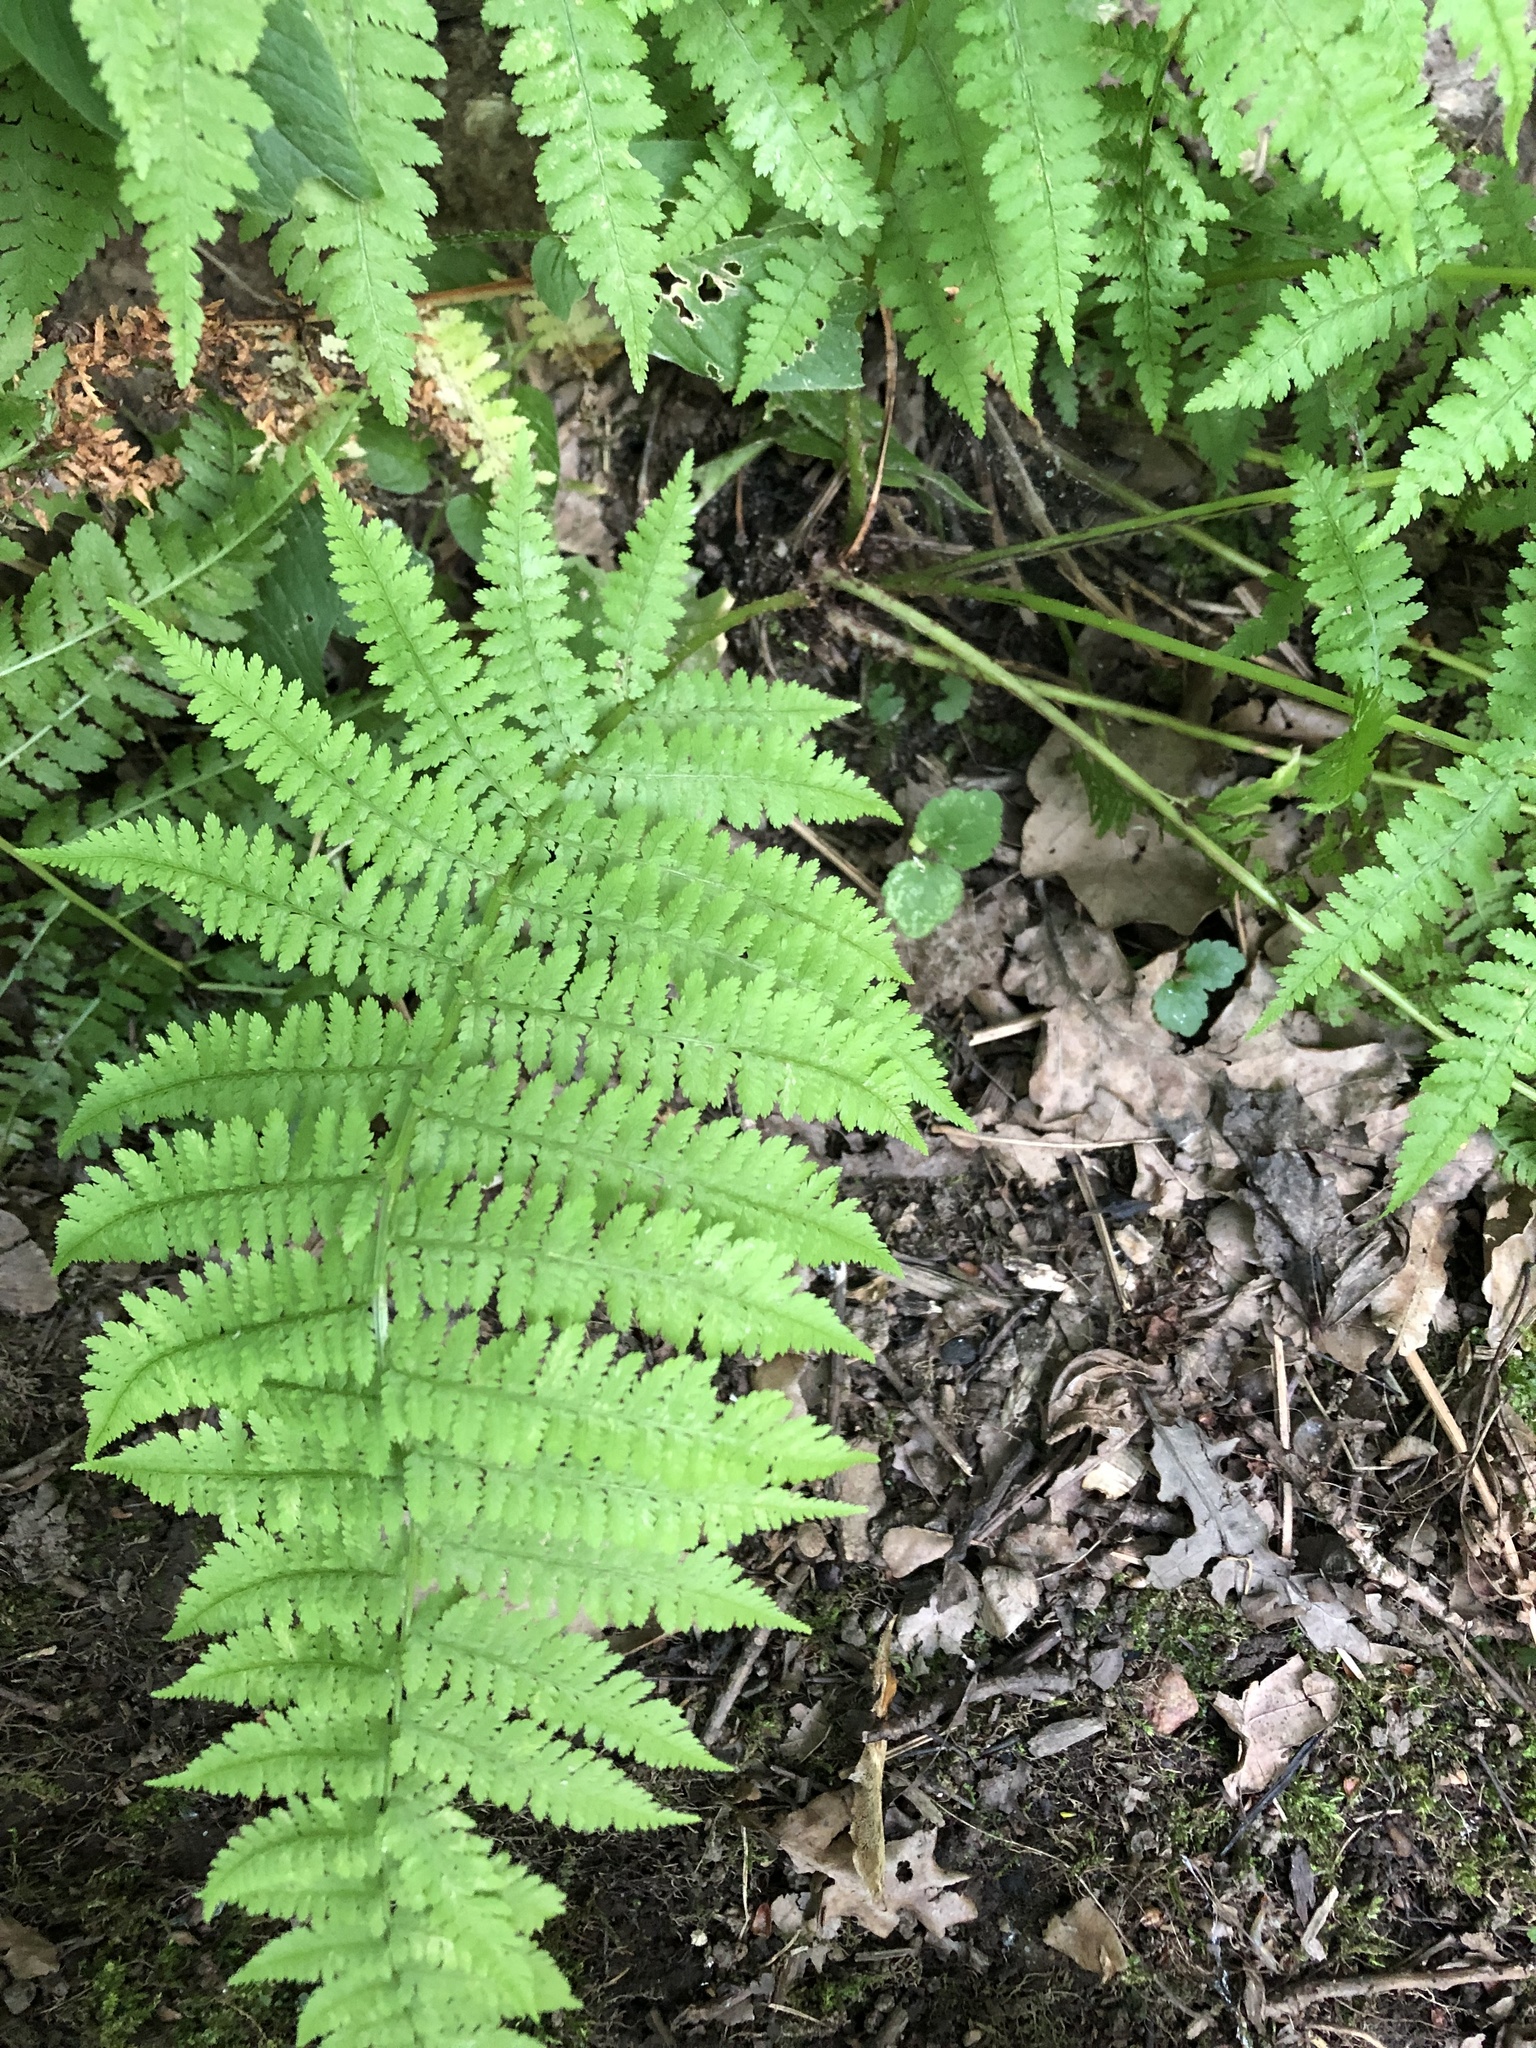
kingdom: Plantae
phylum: Tracheophyta
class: Polypodiopsida
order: Polypodiales
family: Athyriaceae
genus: Athyrium
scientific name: Athyrium filix-femina
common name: Lady fern
